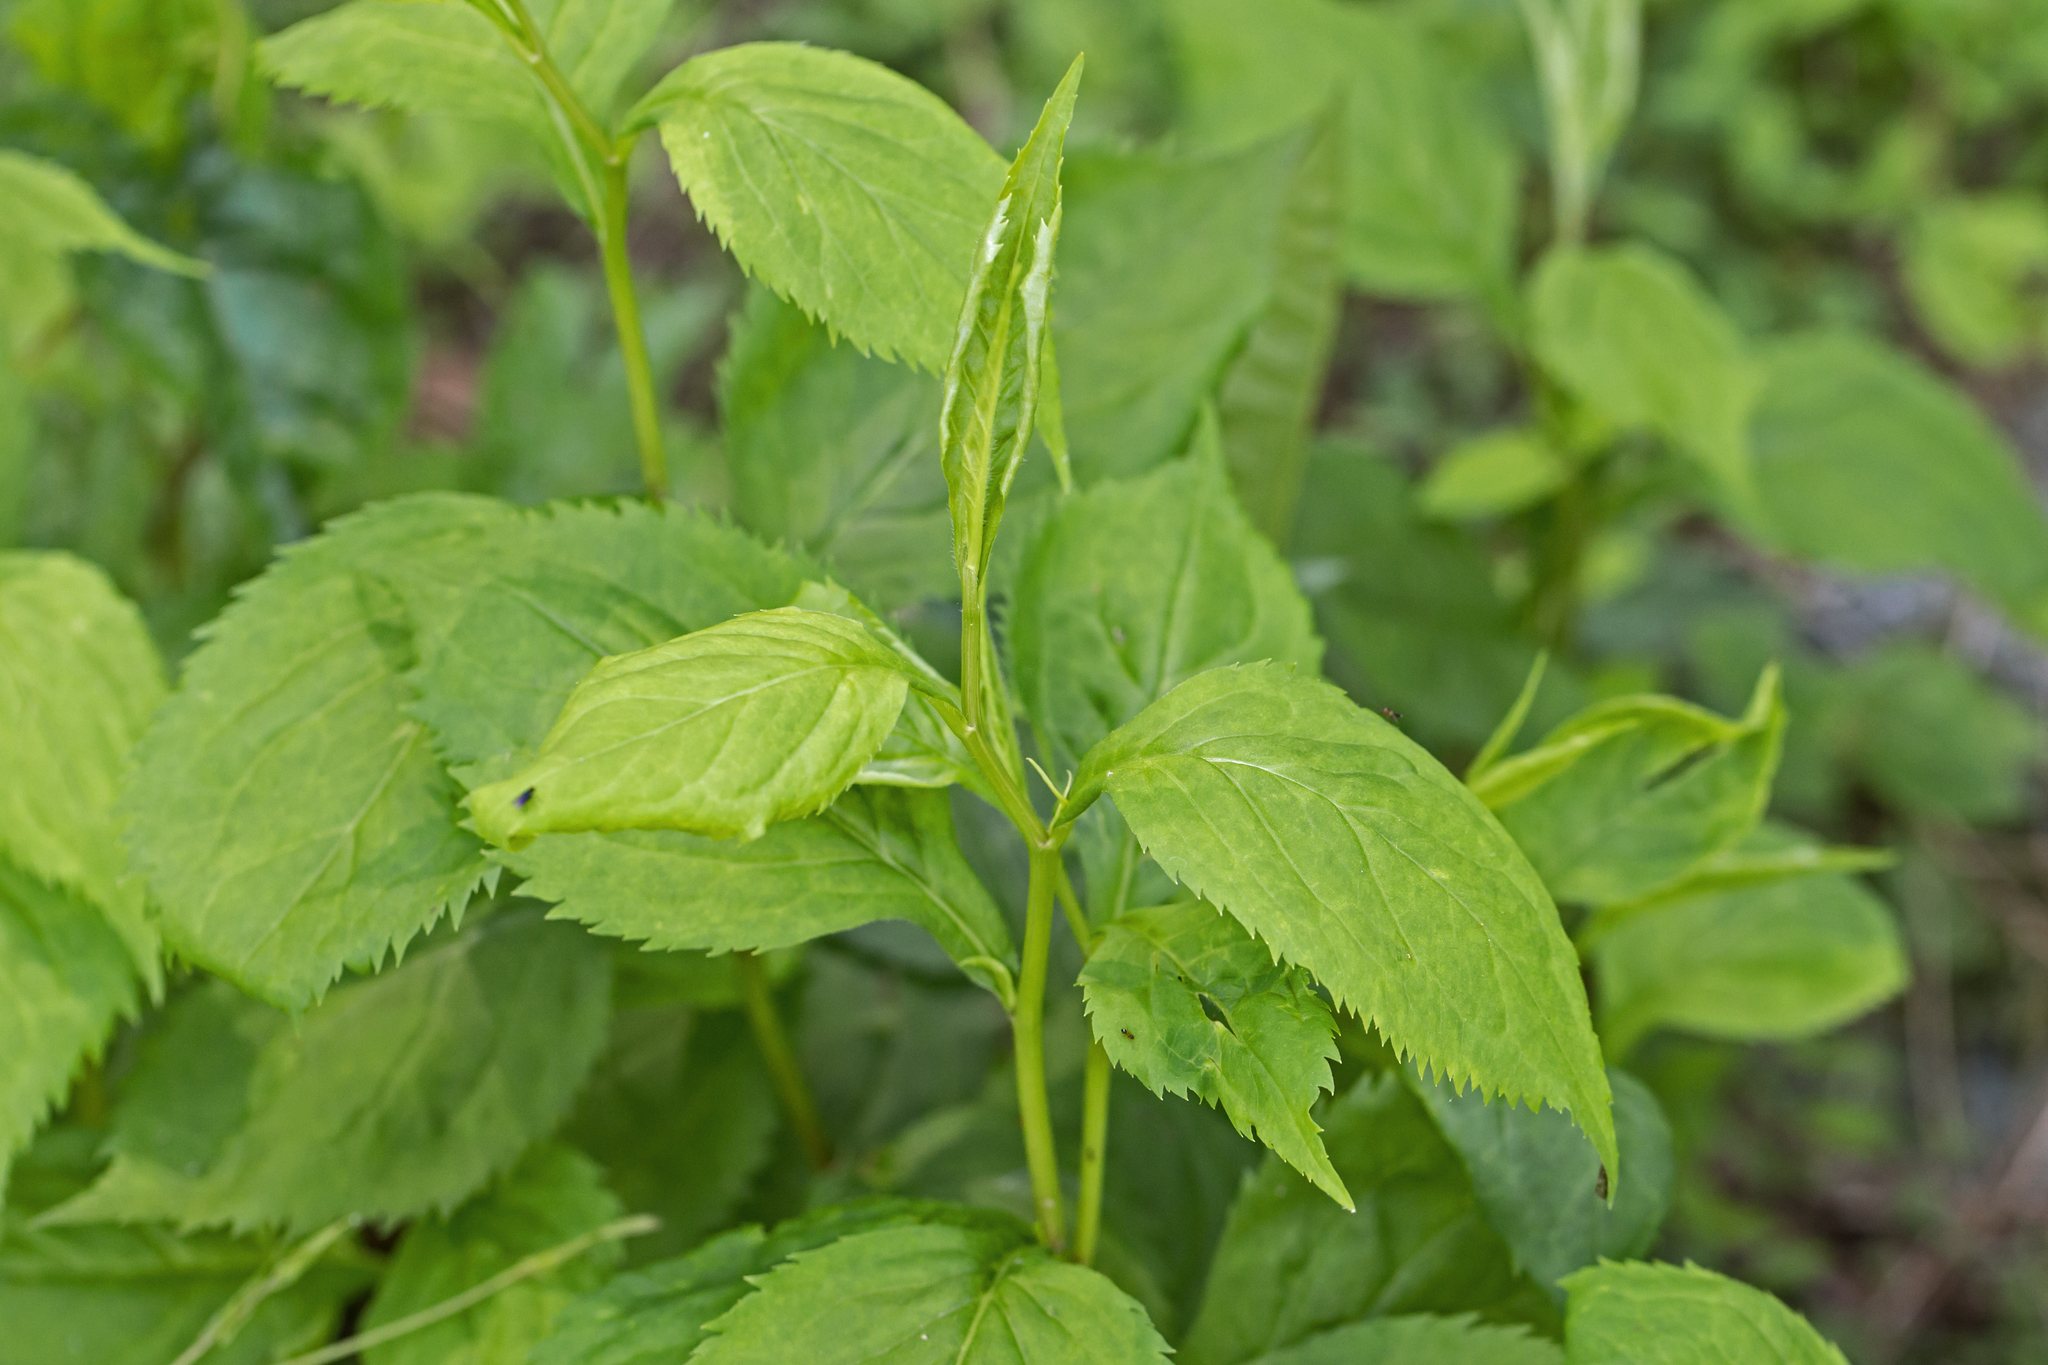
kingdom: Plantae
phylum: Tracheophyta
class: Magnoliopsida
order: Asterales
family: Asteraceae
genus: Solidago
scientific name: Solidago flexicaulis
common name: Zig-zag goldenrod
